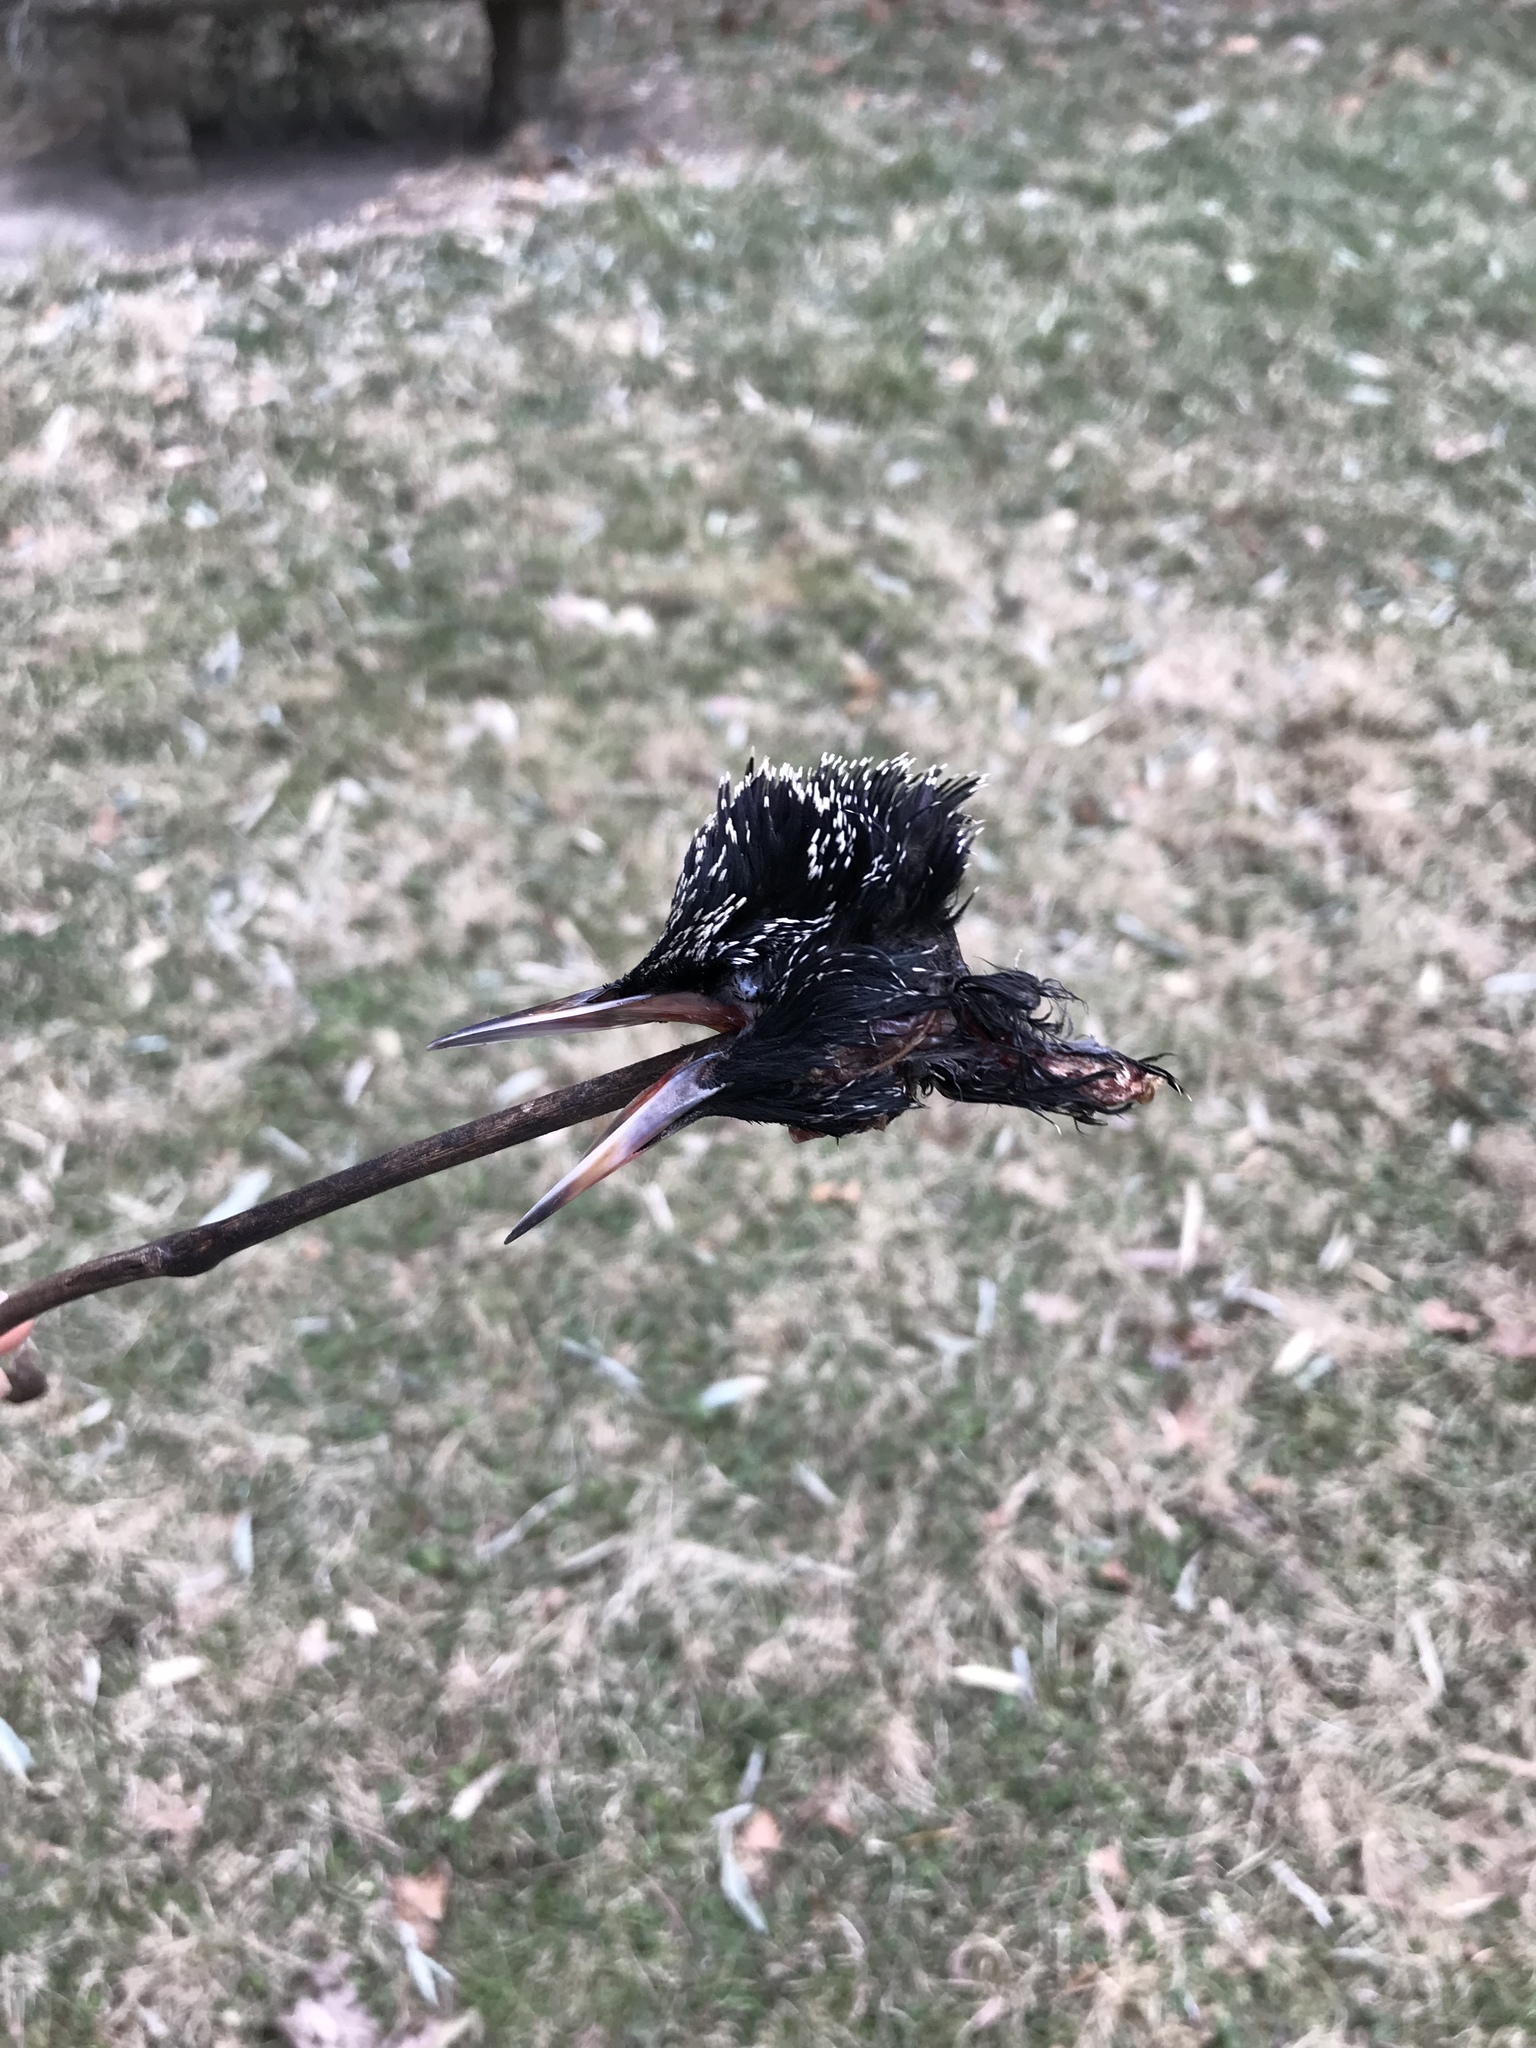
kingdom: Animalia
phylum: Chordata
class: Aves
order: Passeriformes
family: Sturnidae
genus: Sturnus
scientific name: Sturnus vulgaris
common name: Common starling
